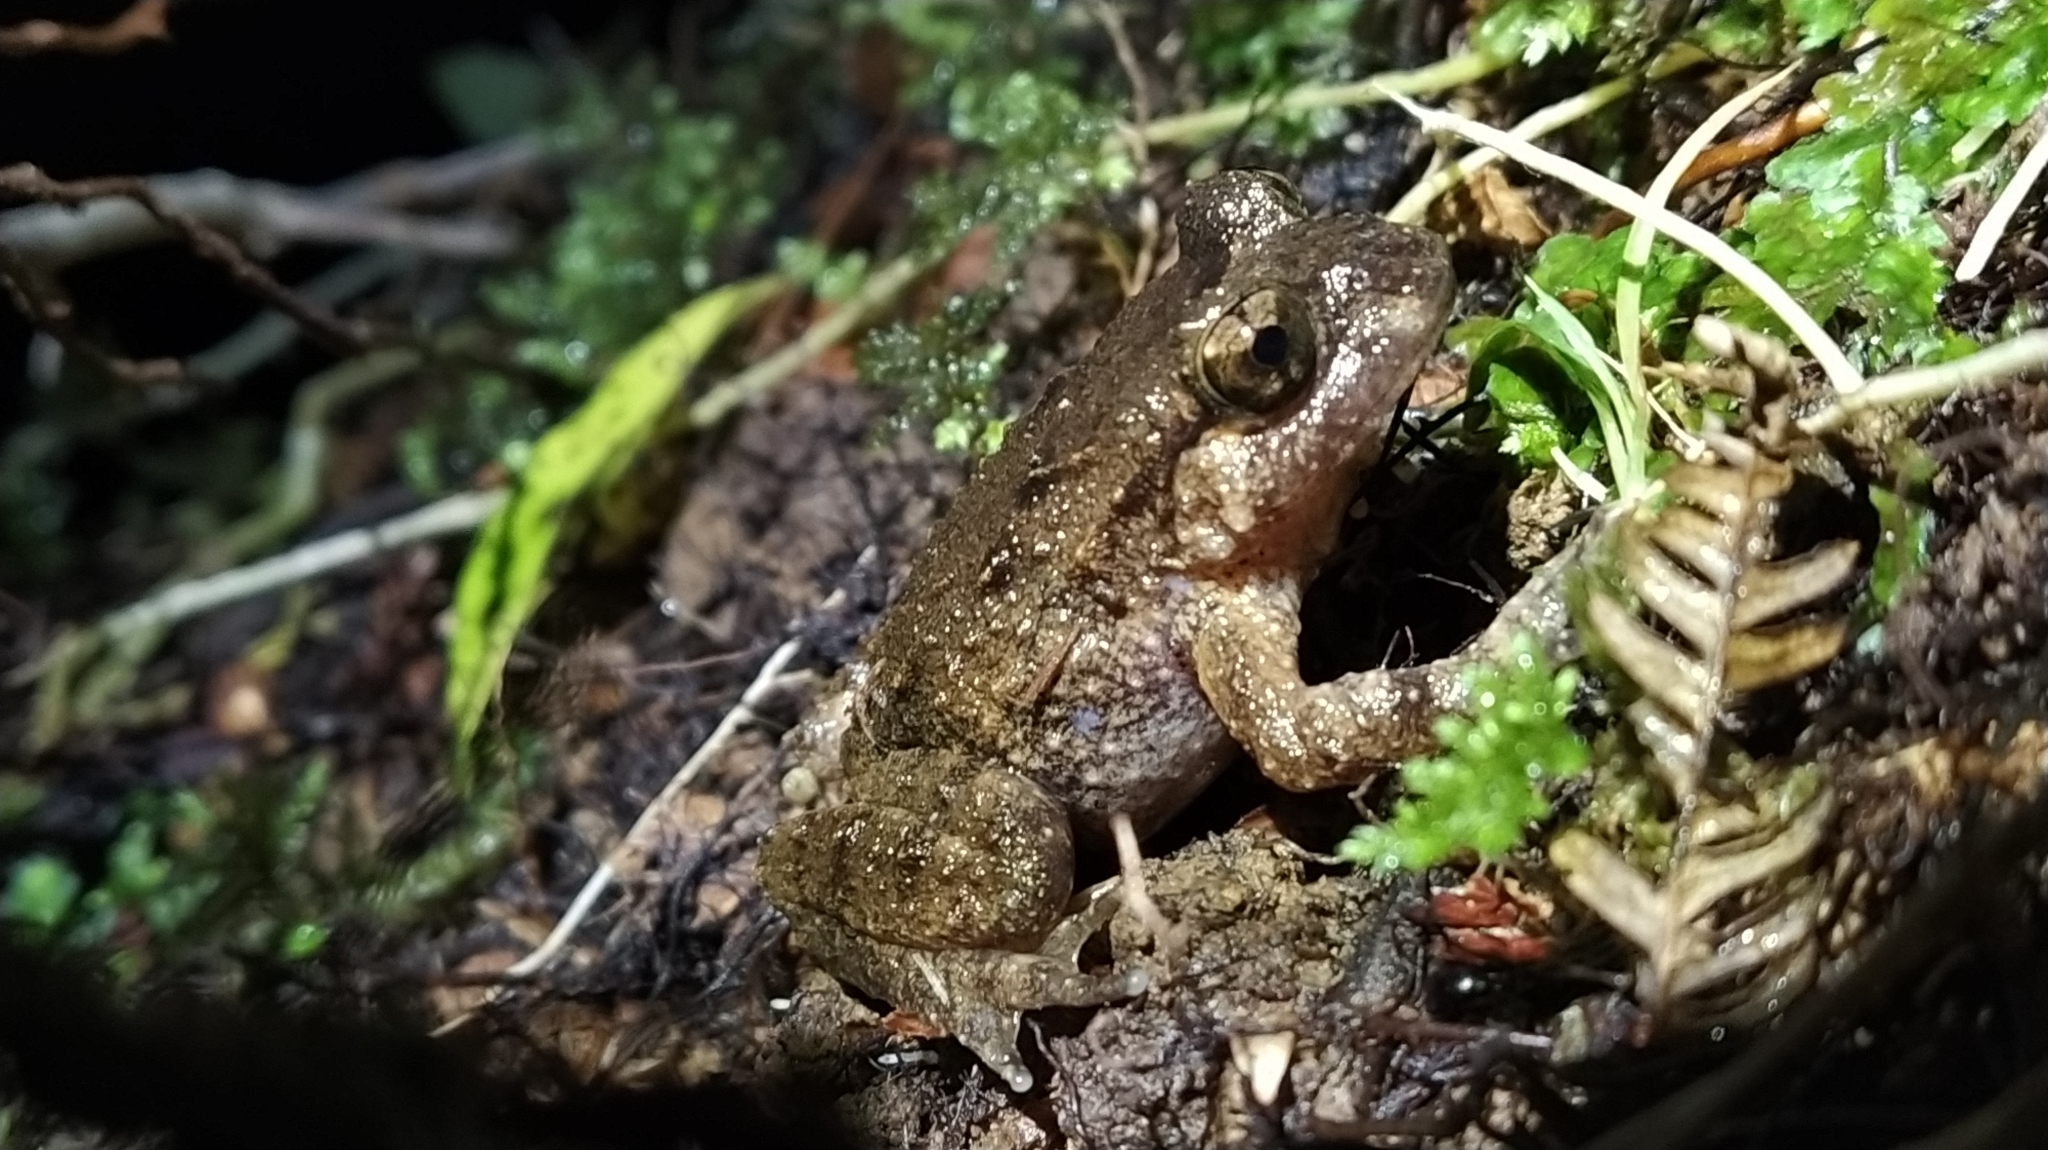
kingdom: Animalia
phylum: Chordata
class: Amphibia
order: Anura
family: Leiopelmatidae
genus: Leiopelma
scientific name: Leiopelma hochstetteri
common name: Hochstetters new zealand frog
